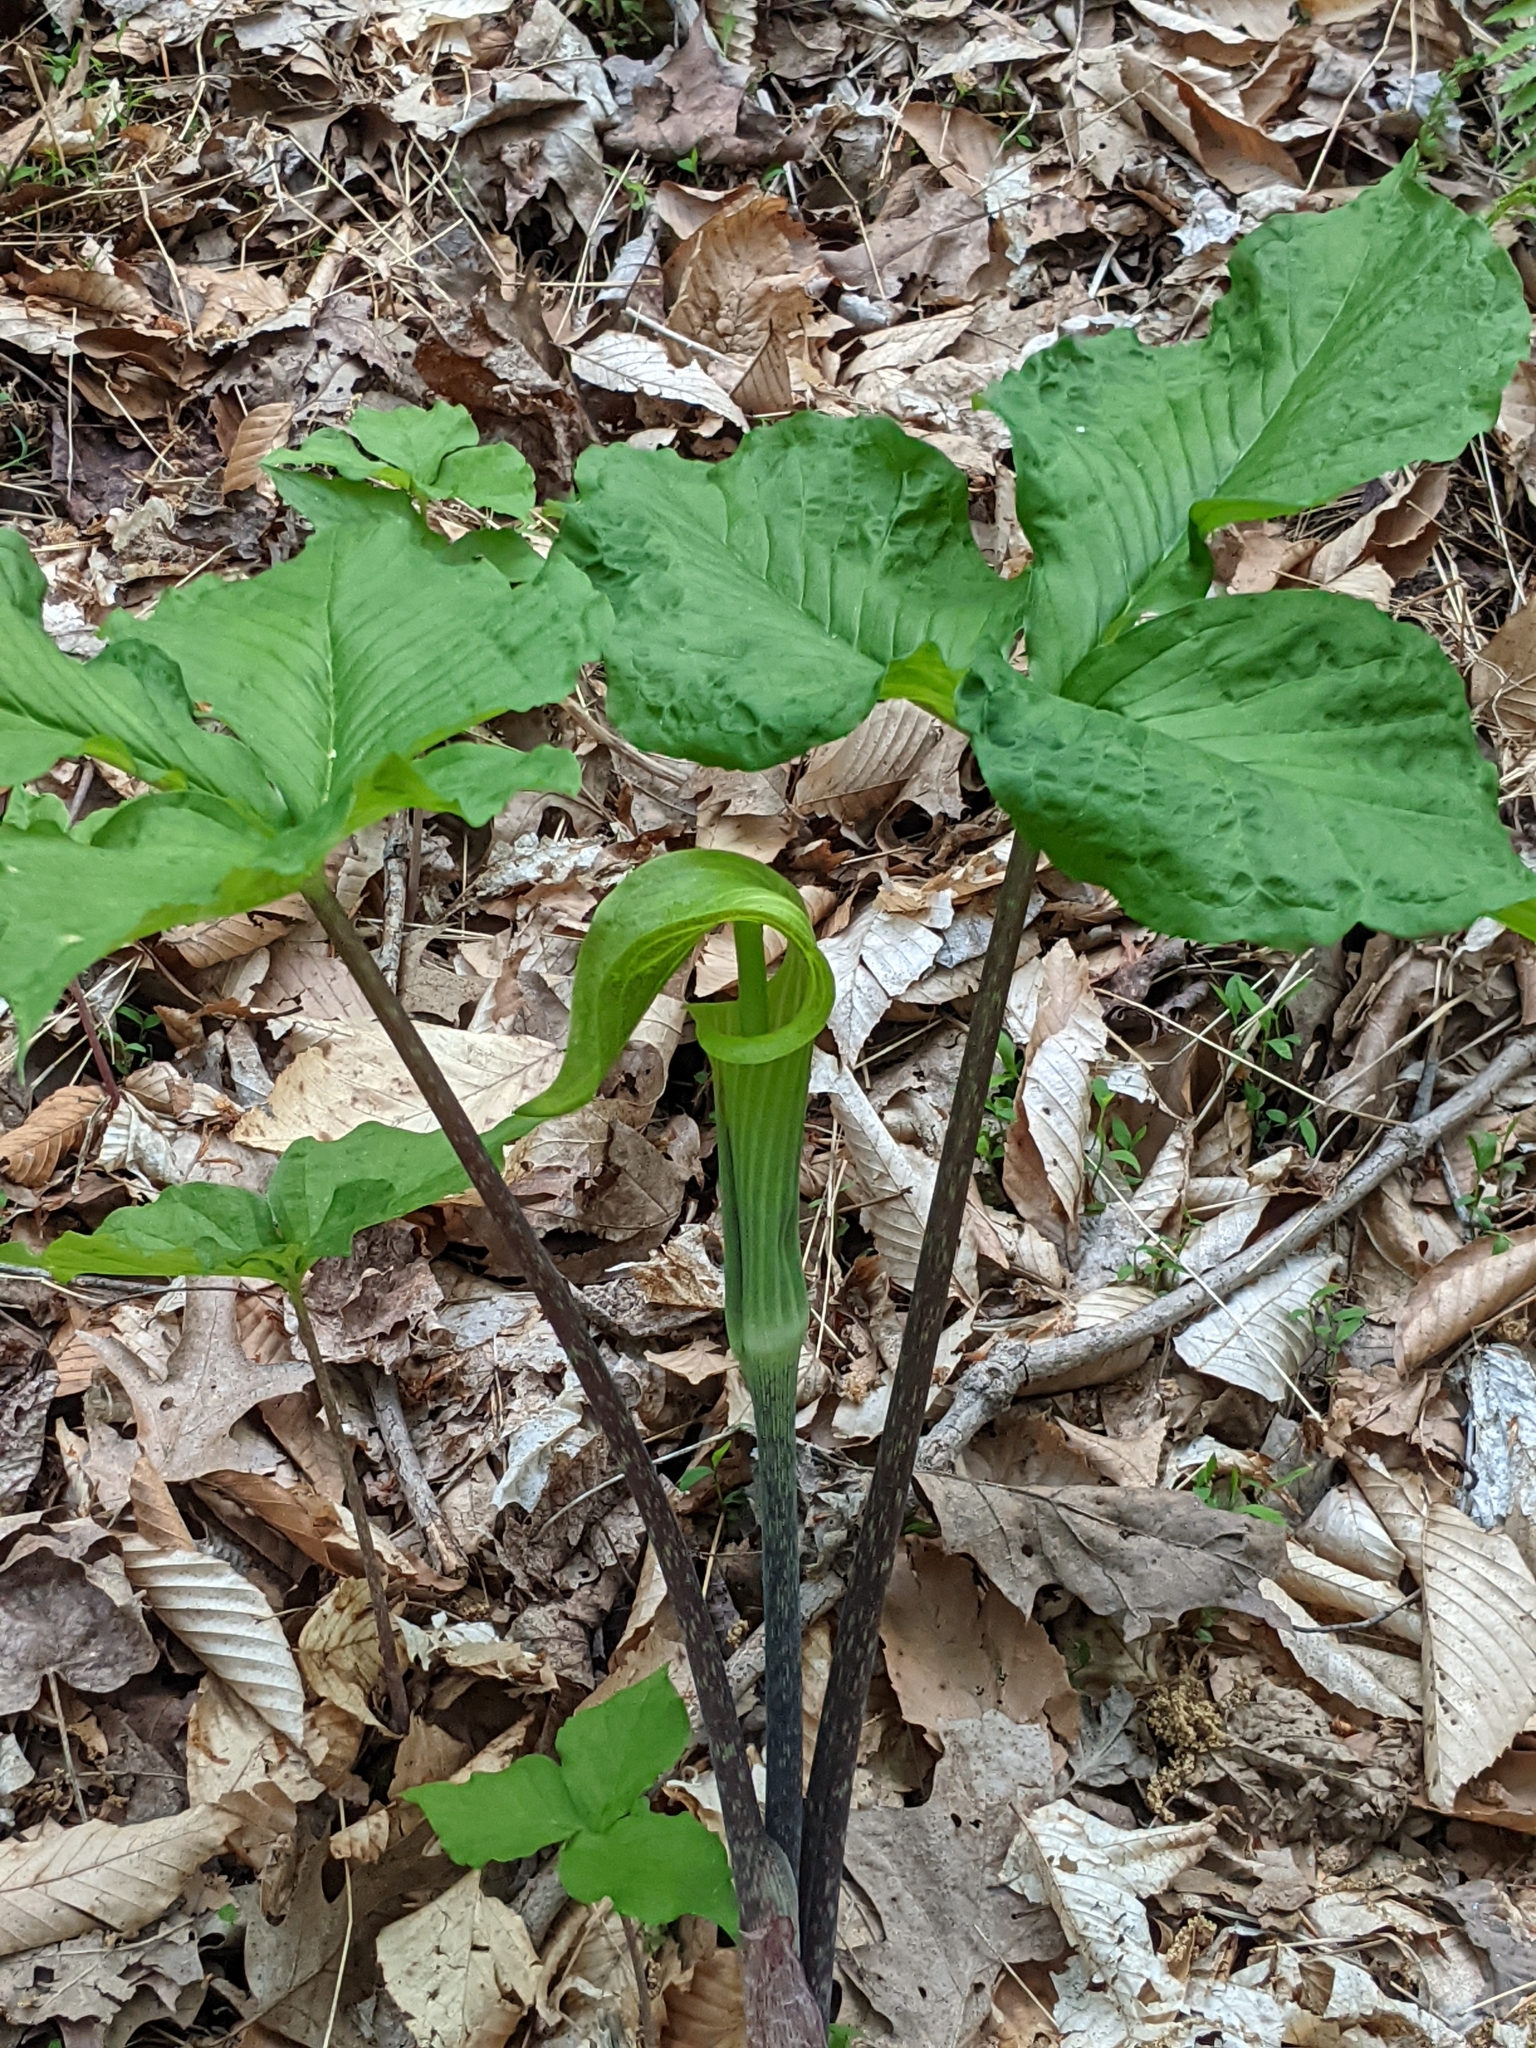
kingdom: Plantae
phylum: Tracheophyta
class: Liliopsida
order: Alismatales
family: Araceae
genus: Arisaema
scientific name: Arisaema triphyllum
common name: Jack-in-the-pulpit
